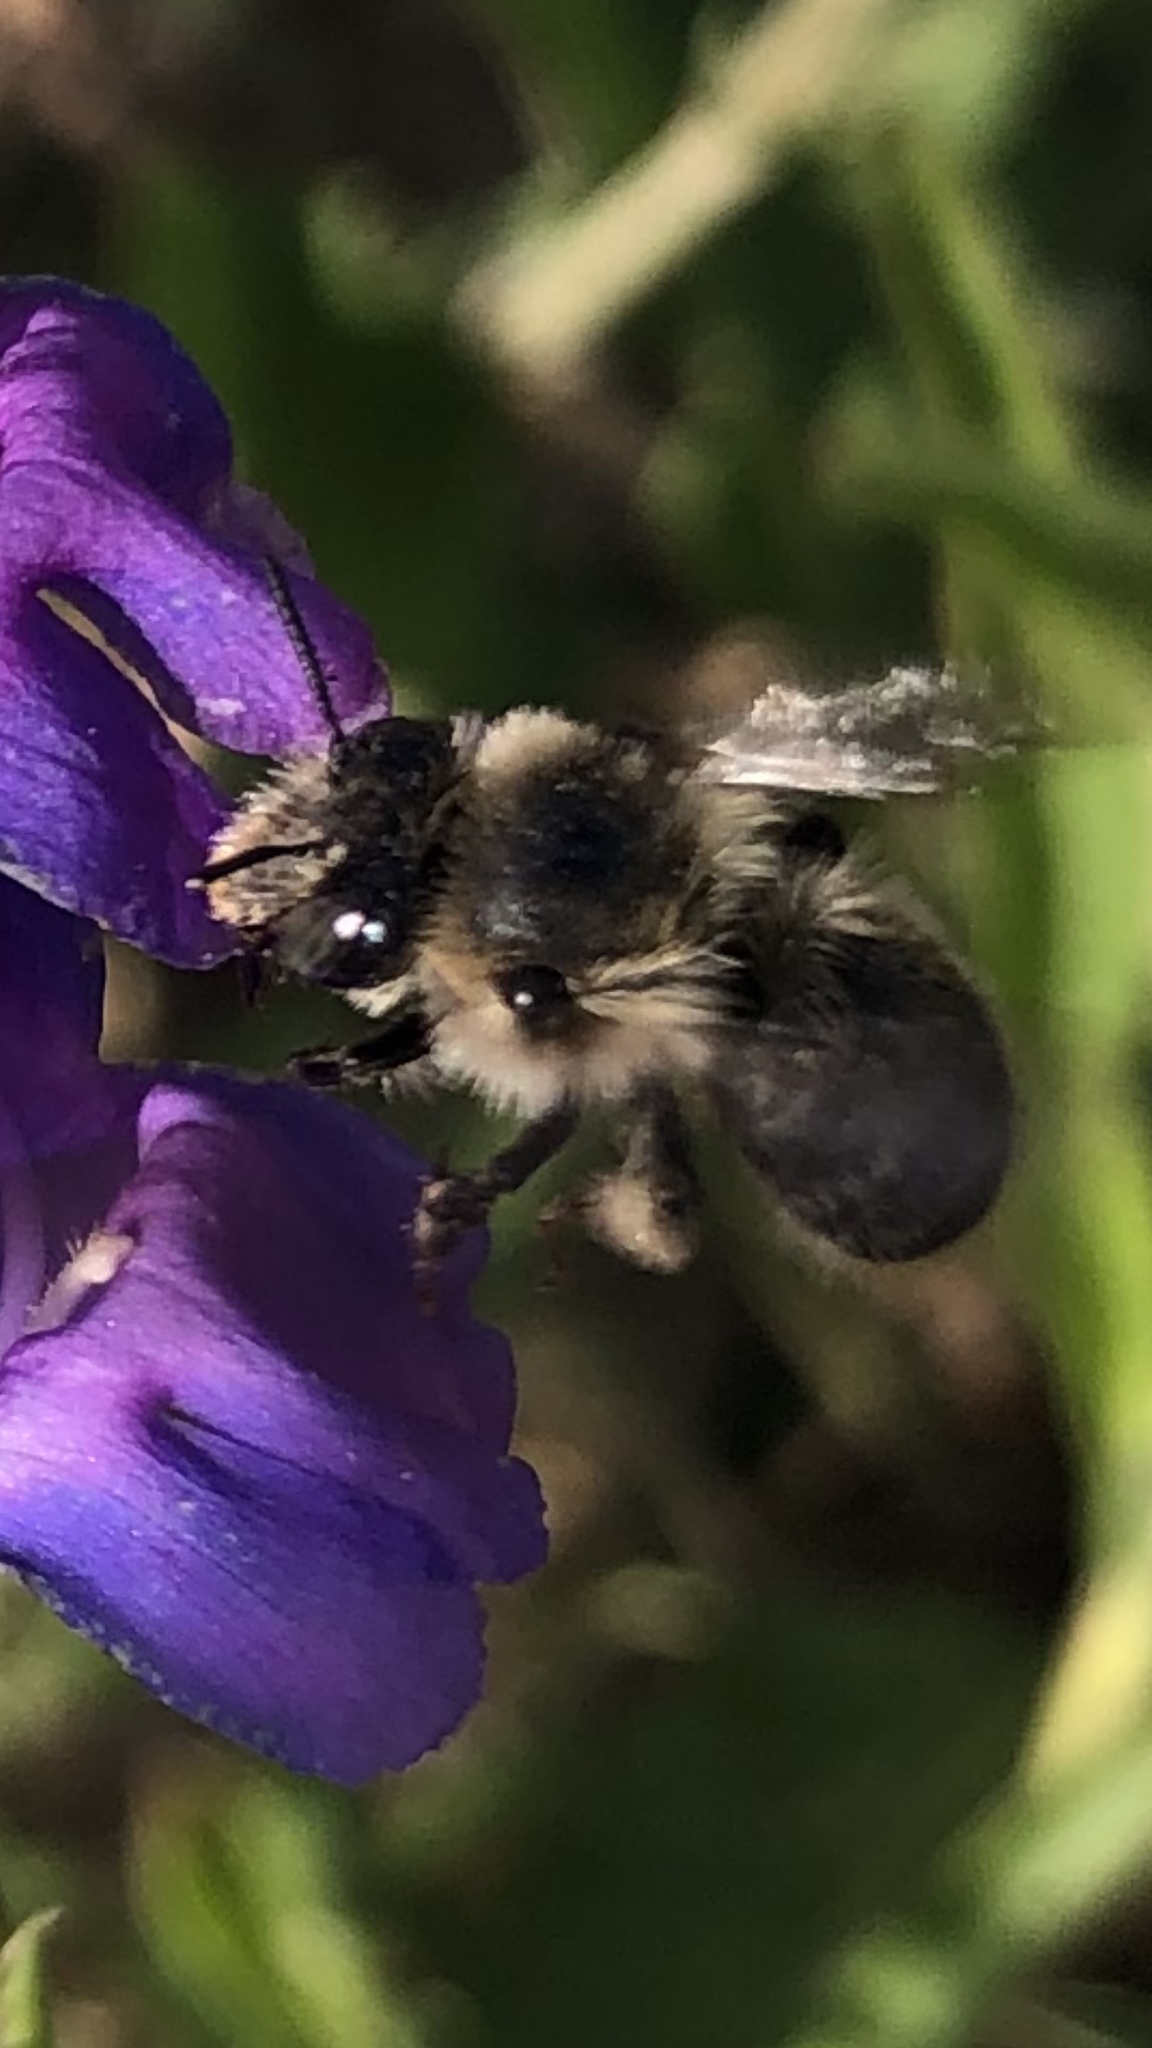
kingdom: Animalia
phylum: Arthropoda
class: Insecta
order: Hymenoptera
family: Apidae
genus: Anthophora
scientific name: Anthophora terminalis
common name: Orange-tipped wood-digger bee
